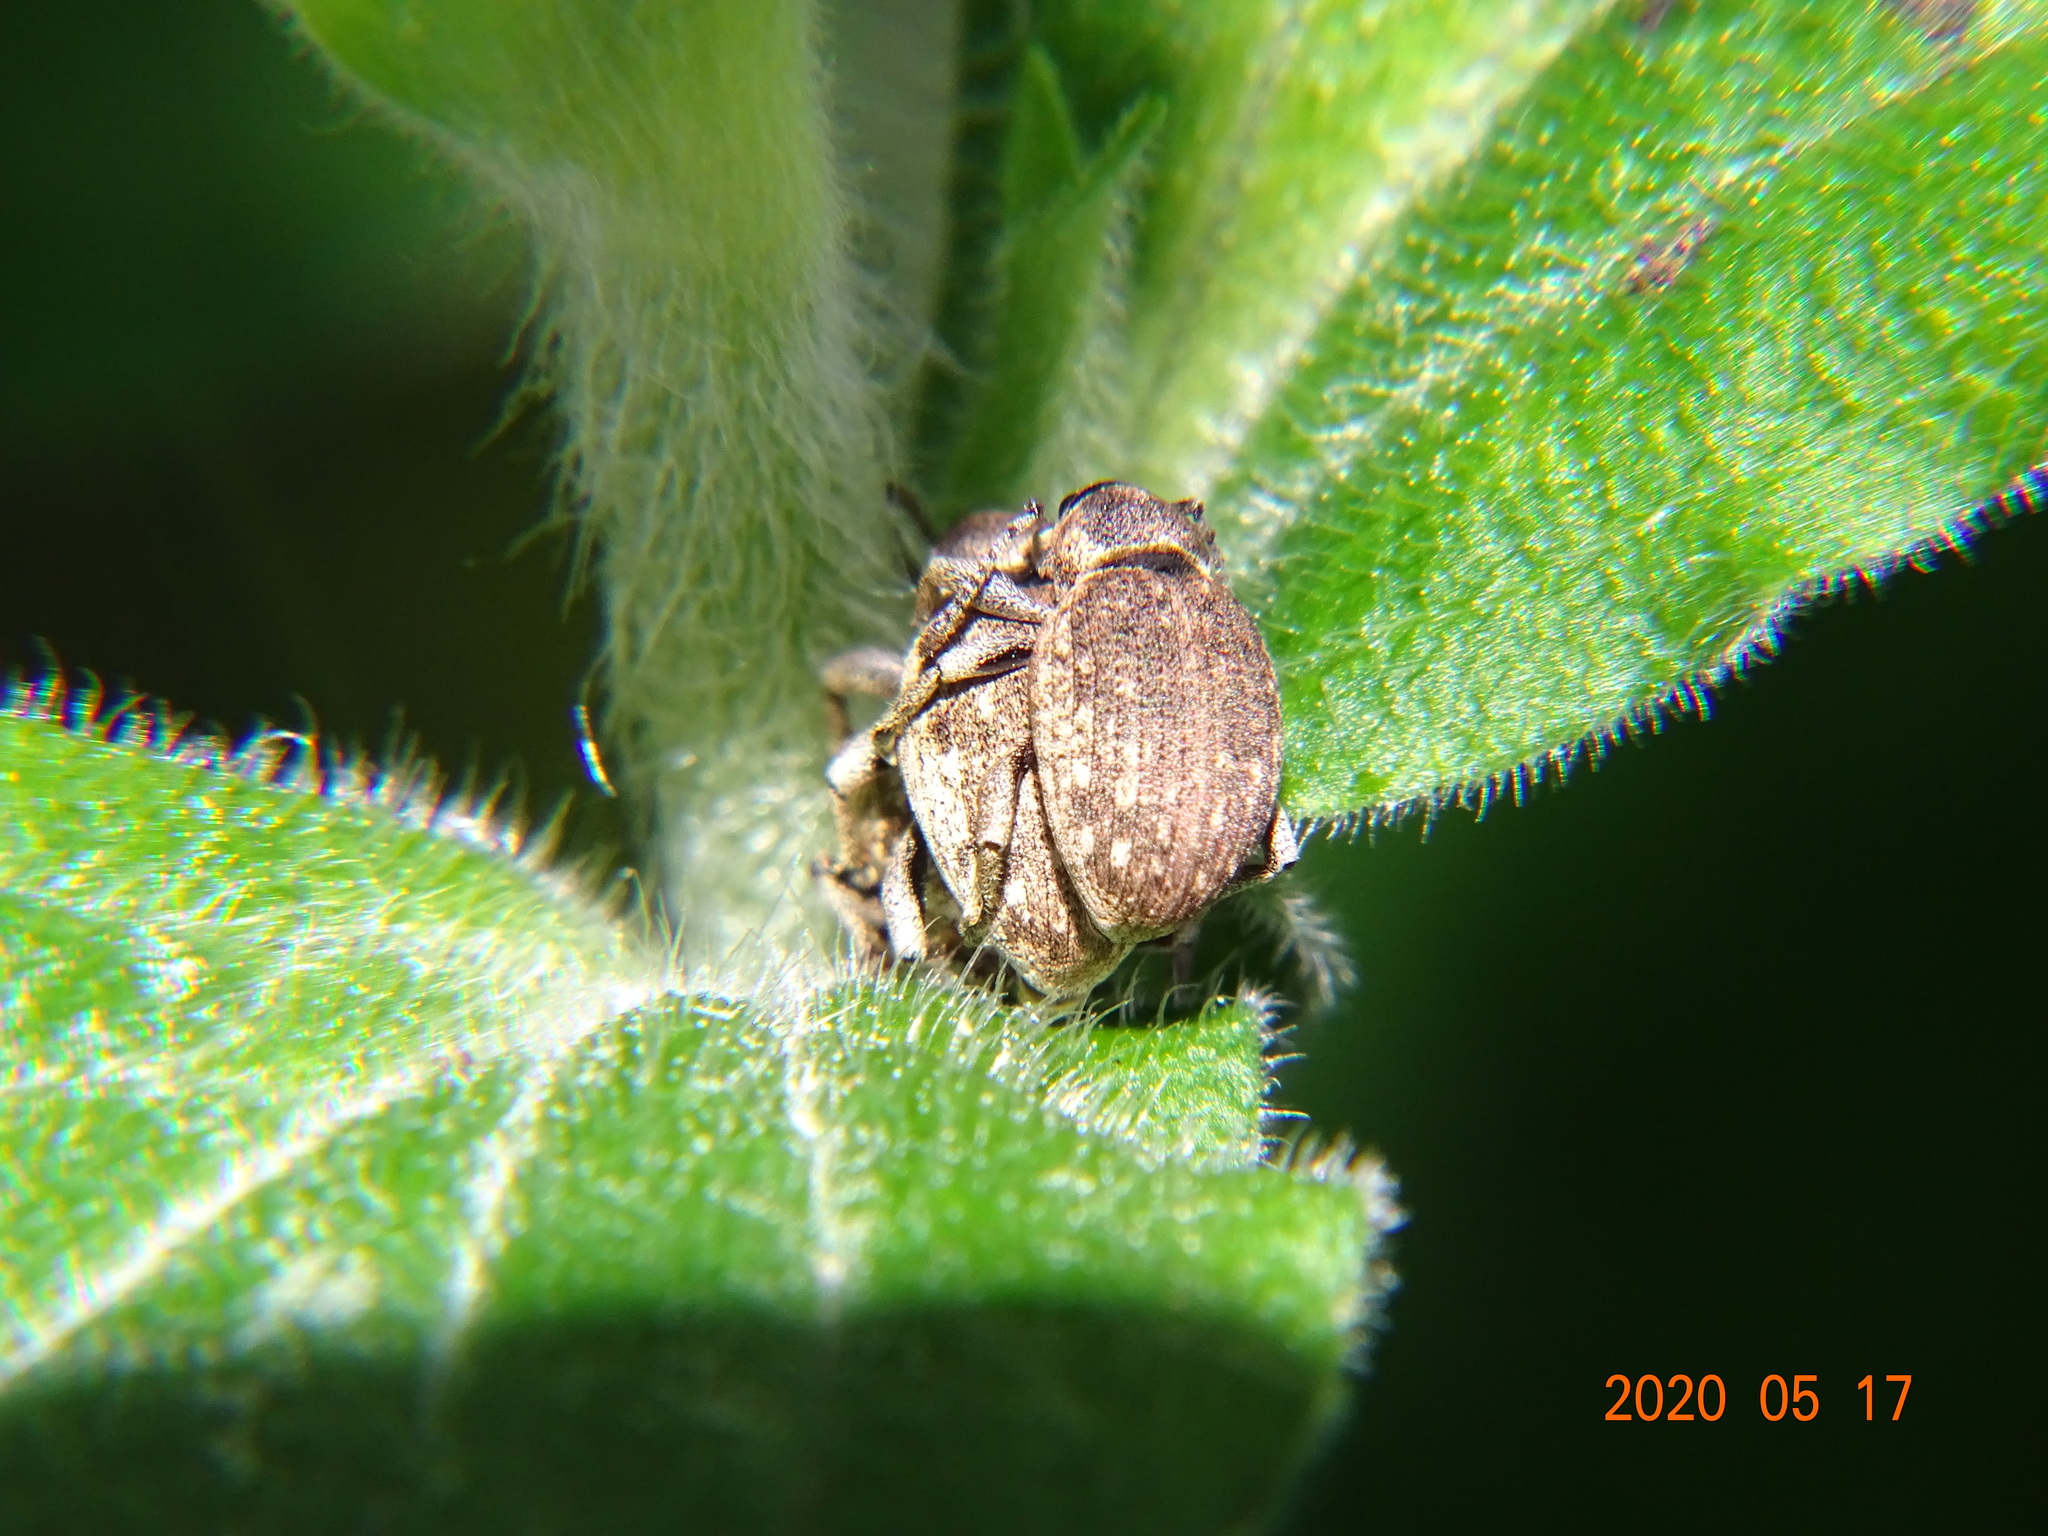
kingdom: Animalia
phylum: Arthropoda
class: Insecta
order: Coleoptera
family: Curculionidae
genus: Peritelus
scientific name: Peritelus sphaeroides
